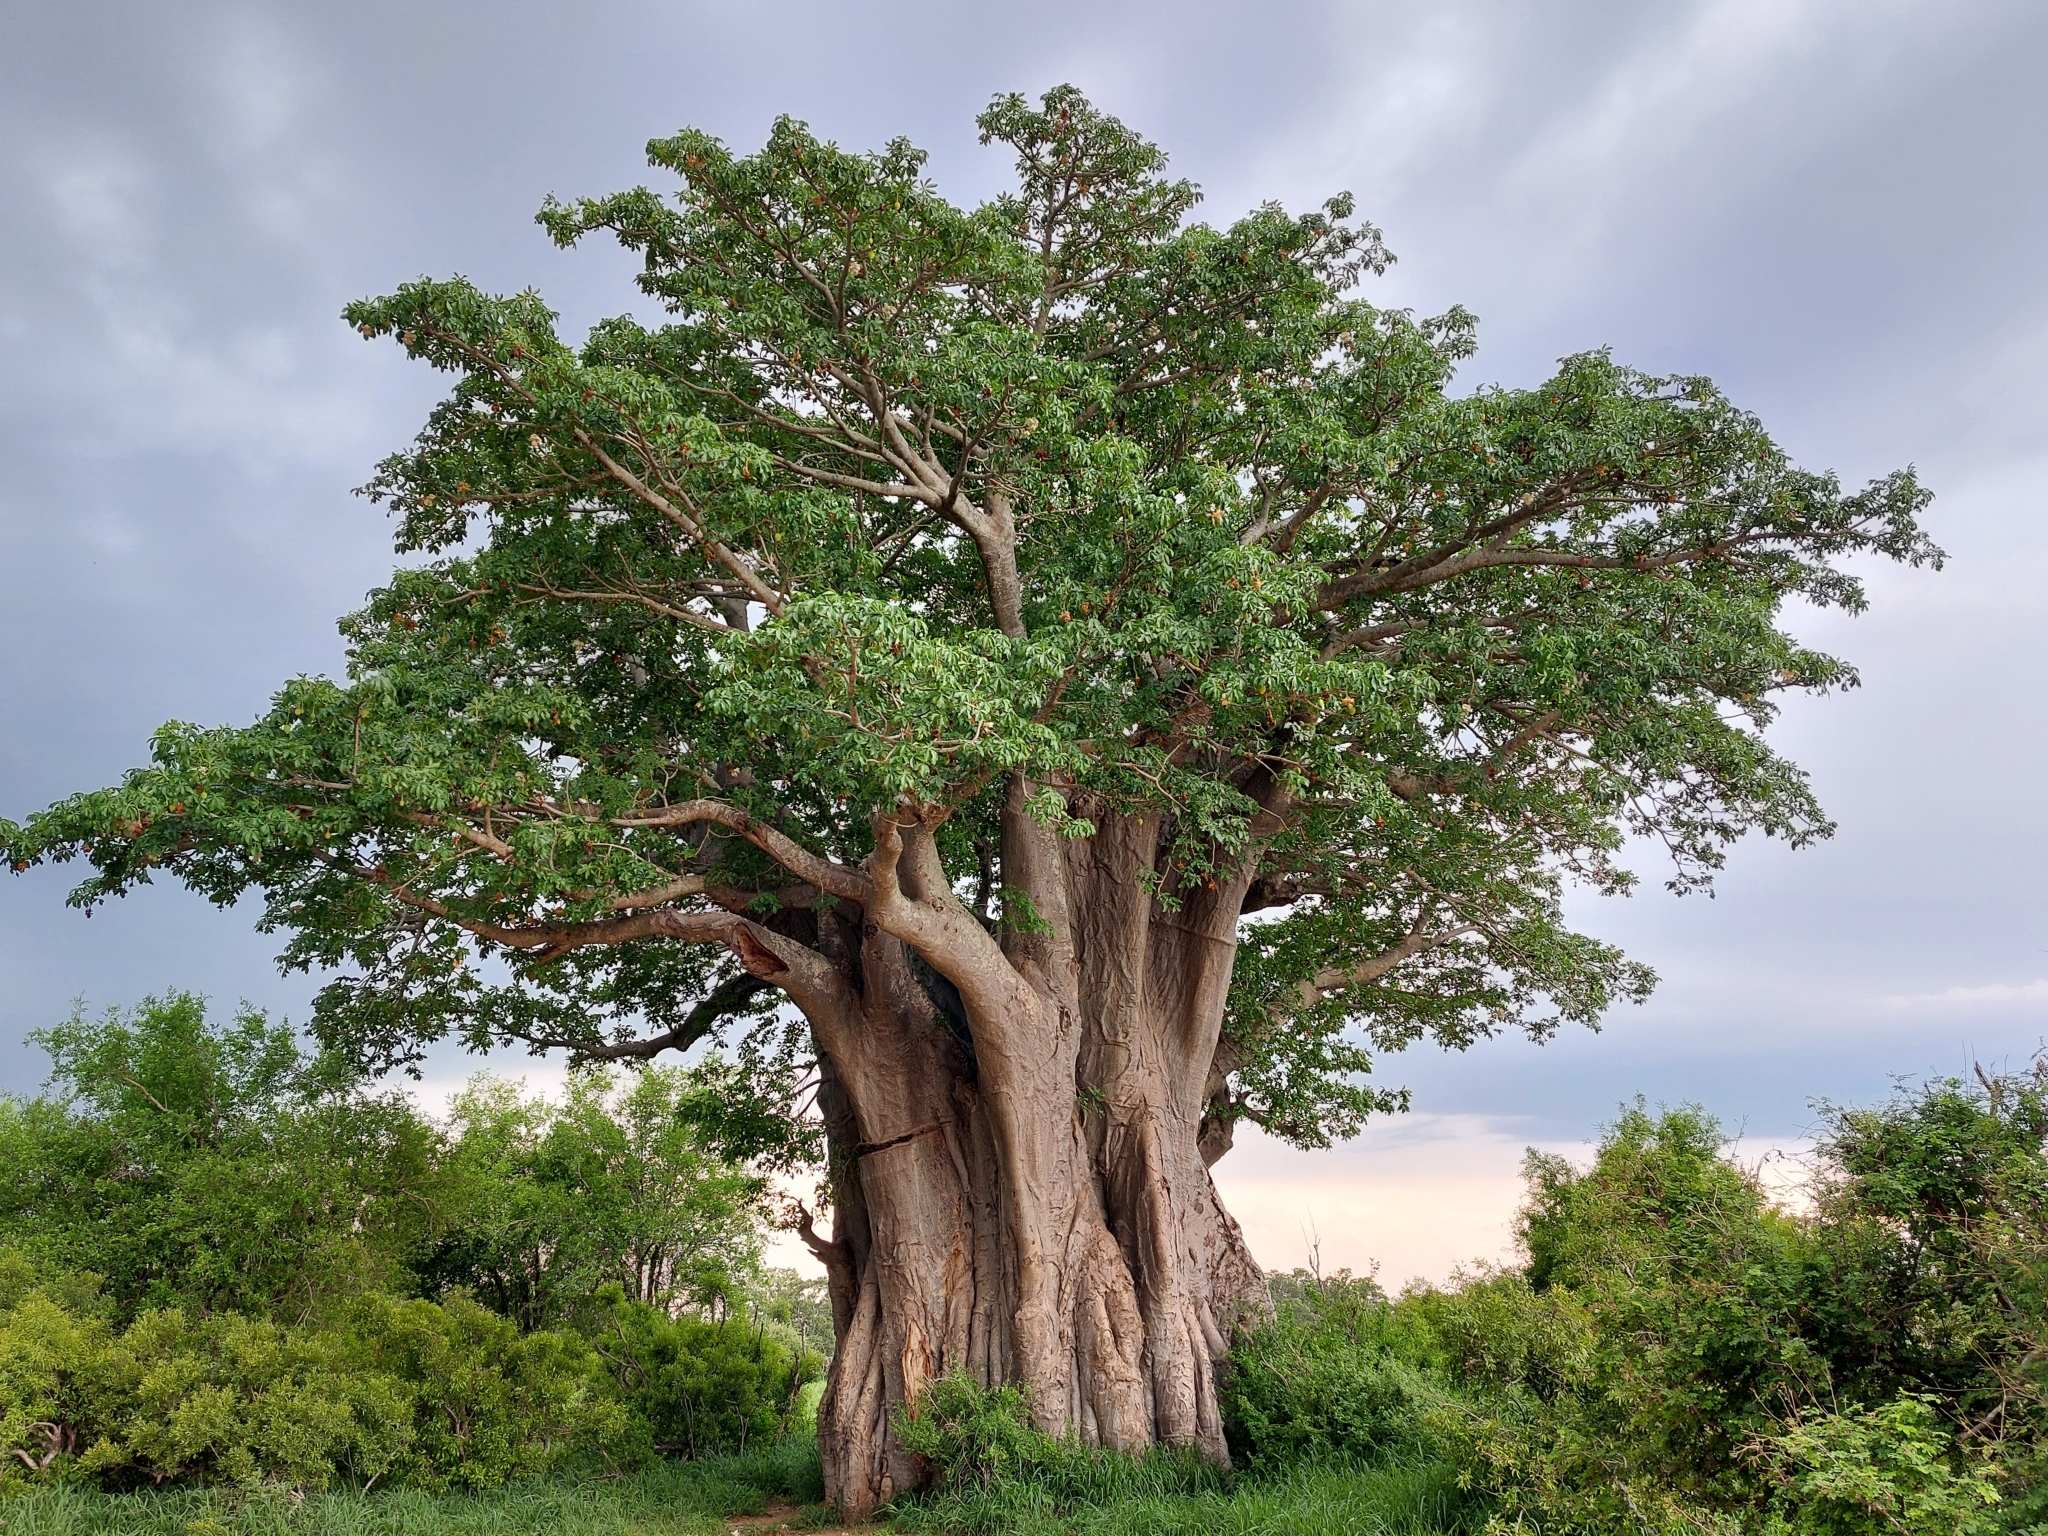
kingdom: Plantae
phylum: Tracheophyta
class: Magnoliopsida
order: Malvales
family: Malvaceae
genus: Adansonia
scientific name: Adansonia digitata
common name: Dead-rat-tree
